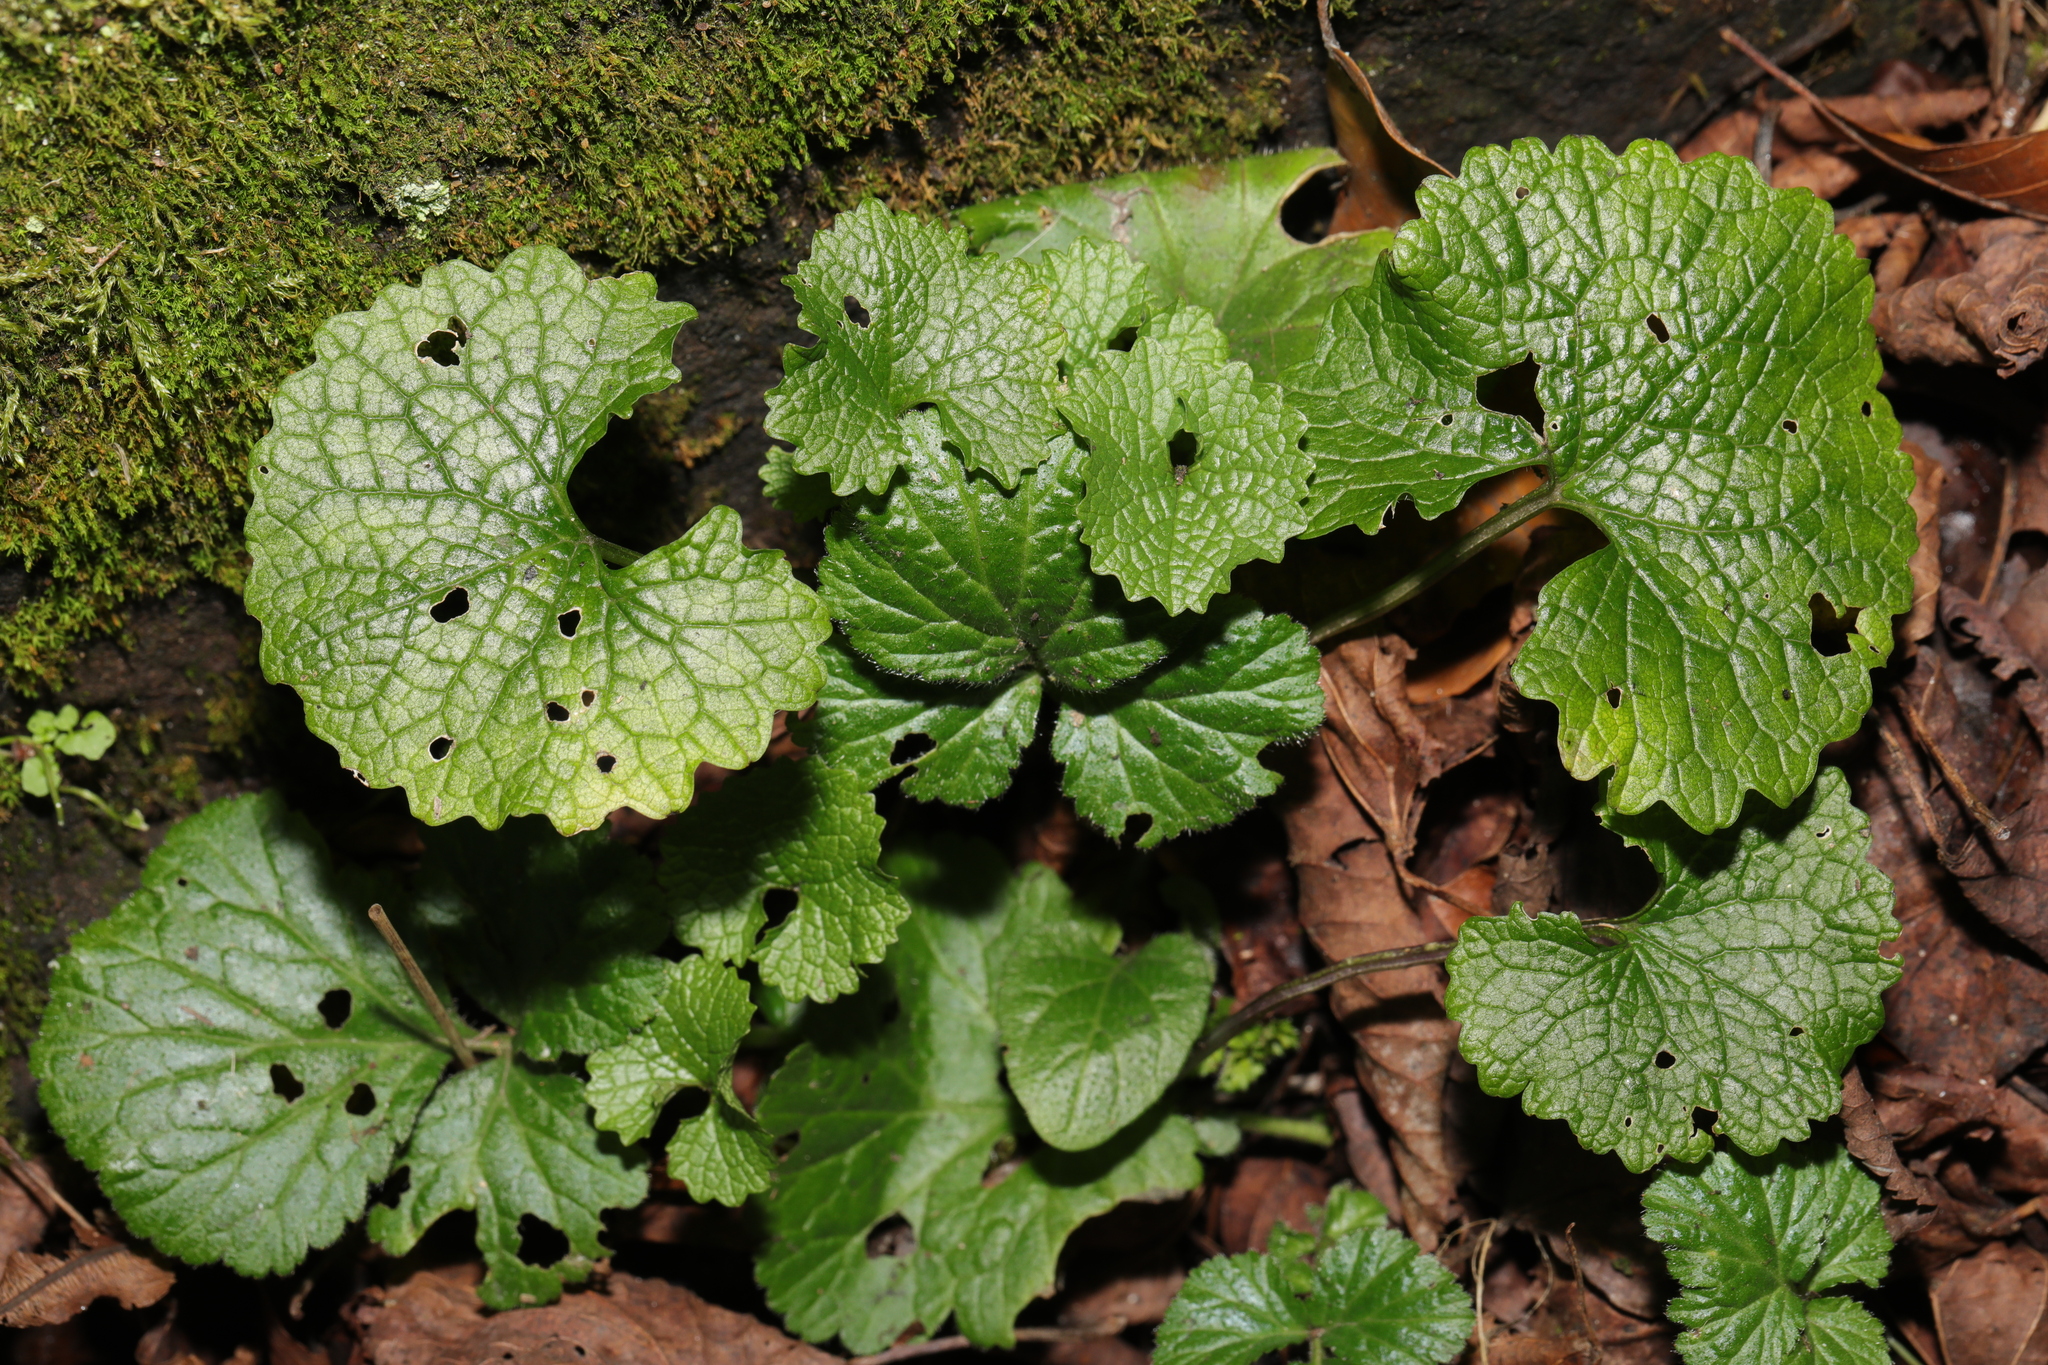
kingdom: Plantae
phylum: Tracheophyta
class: Magnoliopsida
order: Brassicales
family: Brassicaceae
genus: Alliaria
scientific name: Alliaria petiolata
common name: Garlic mustard
